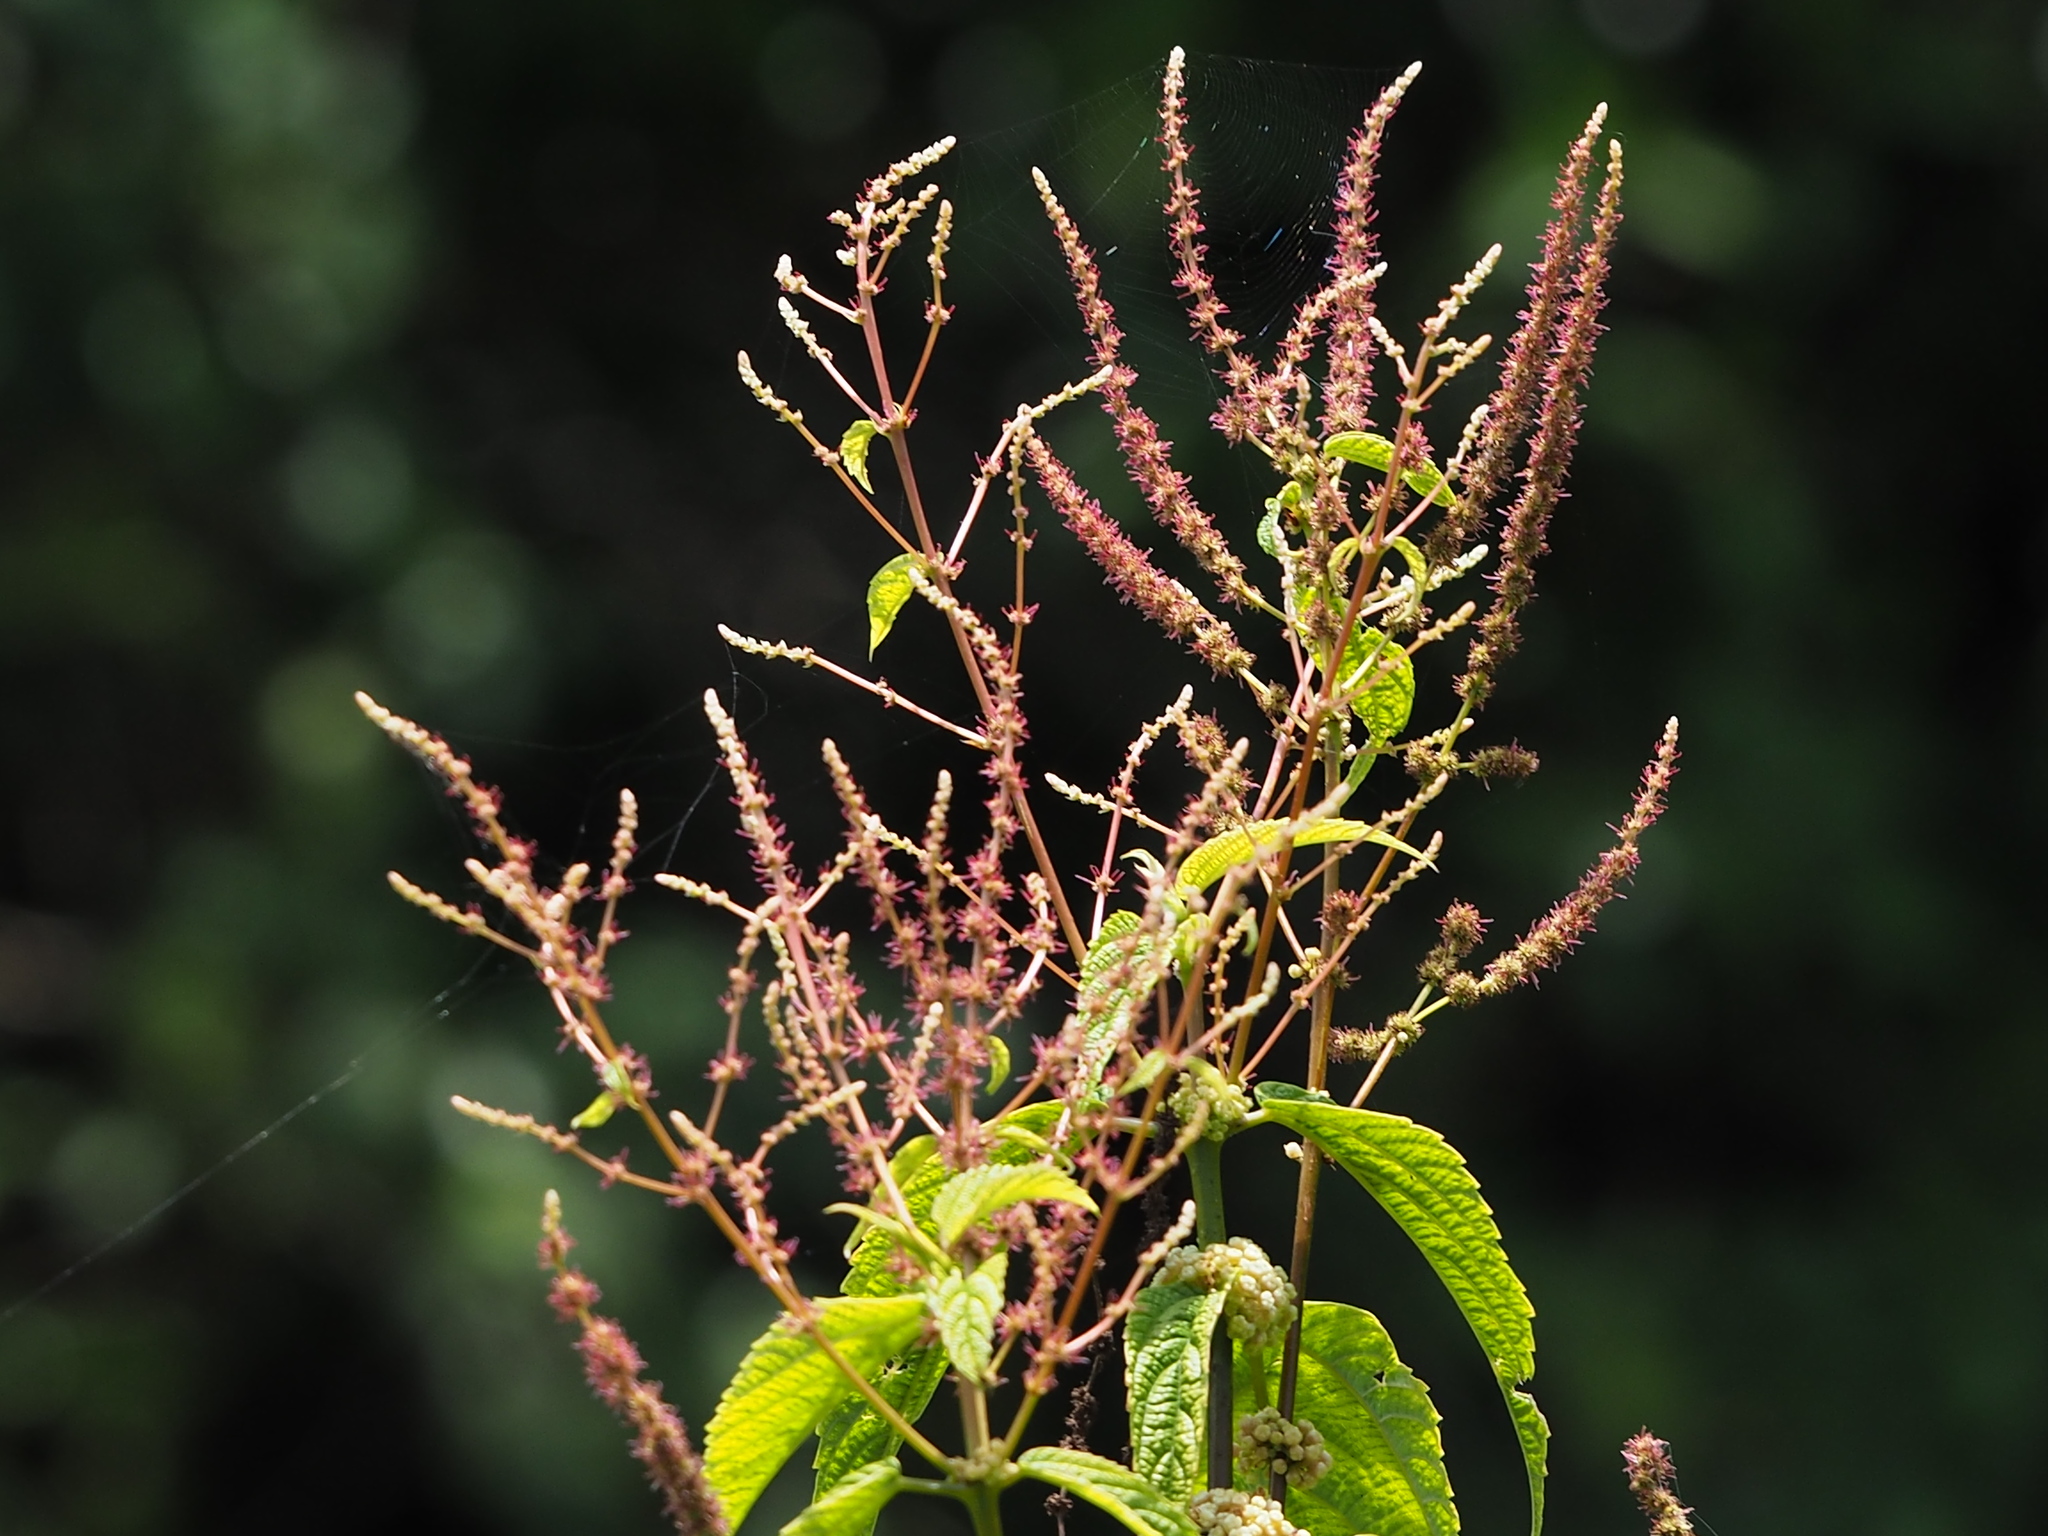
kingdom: Plantae
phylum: Tracheophyta
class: Magnoliopsida
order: Rosales
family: Urticaceae
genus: Boehmeria
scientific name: Boehmeria zollingeriana
